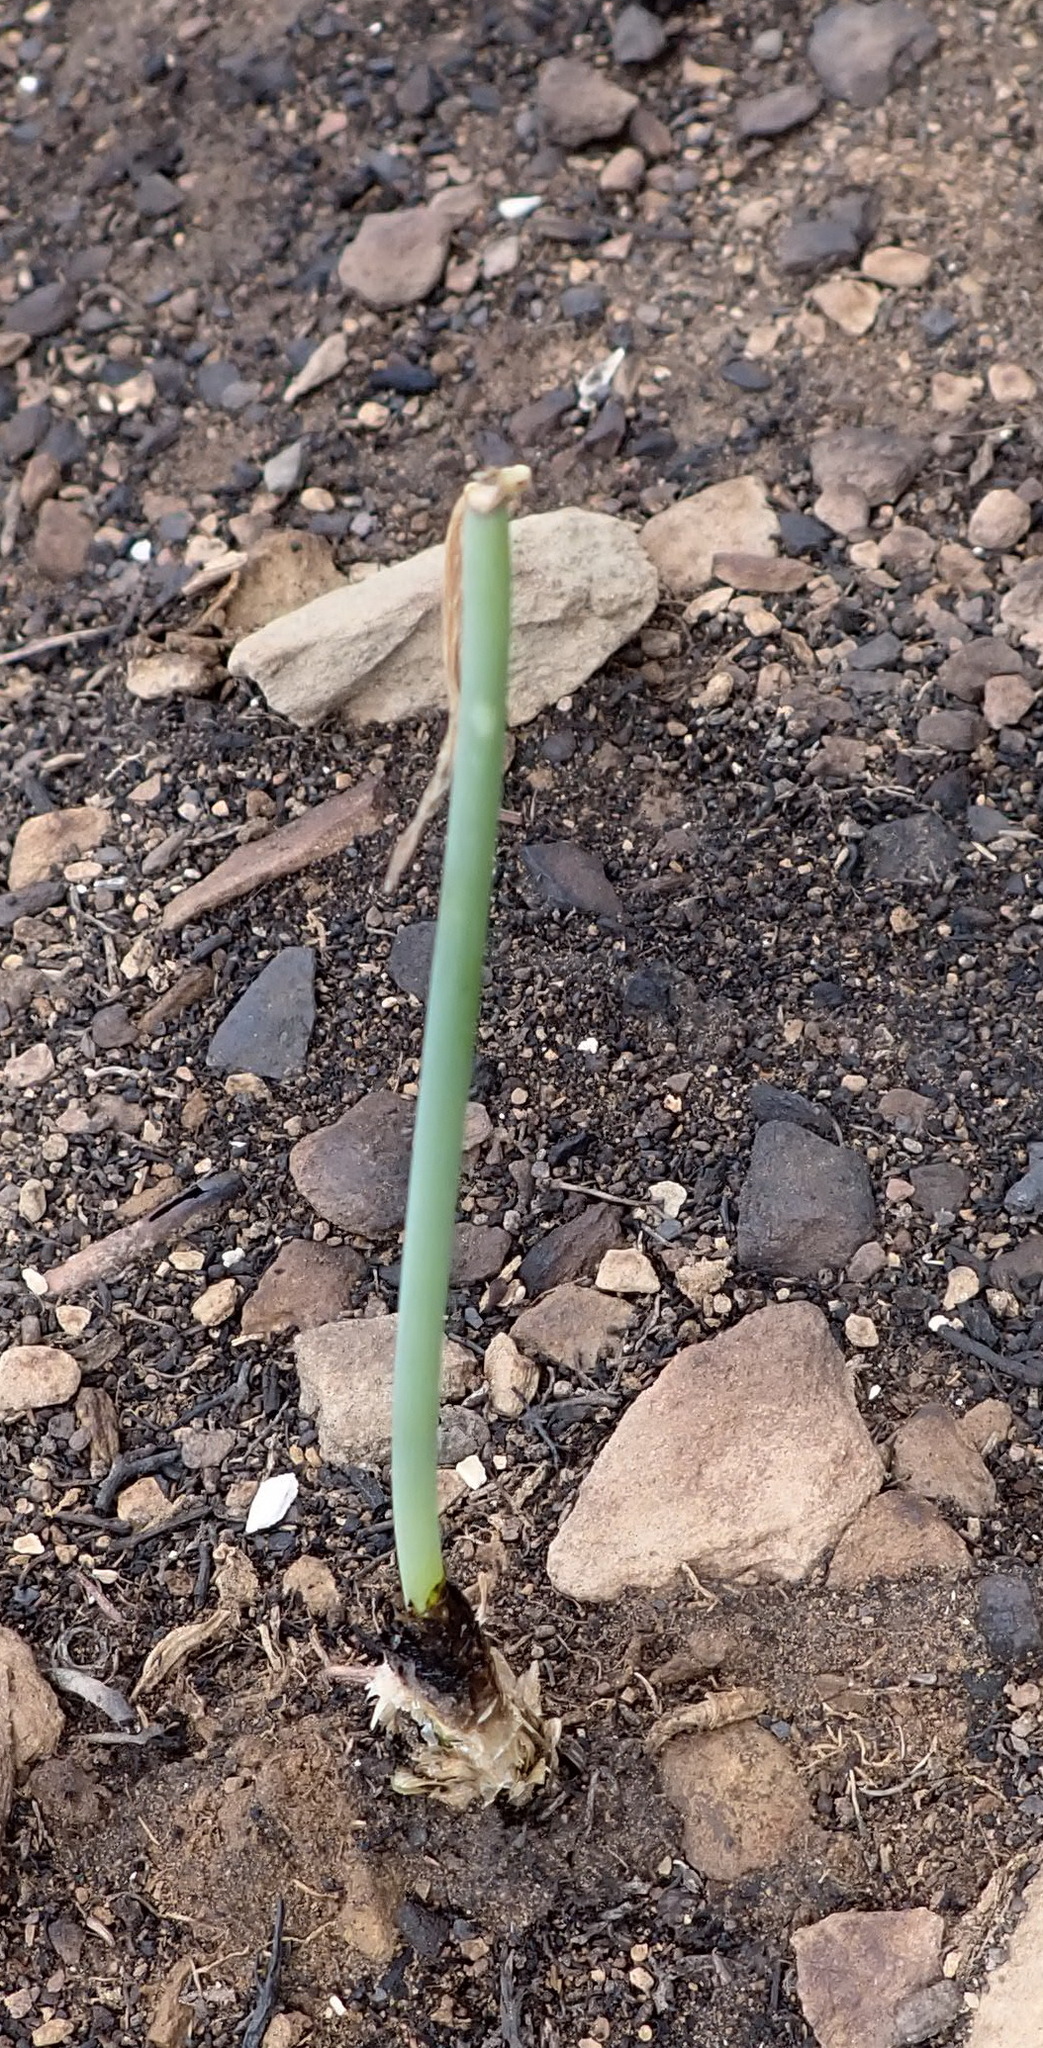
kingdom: Plantae
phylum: Tracheophyta
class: Liliopsida
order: Asparagales
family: Asparagaceae
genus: Drimia
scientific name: Drimia anomala
